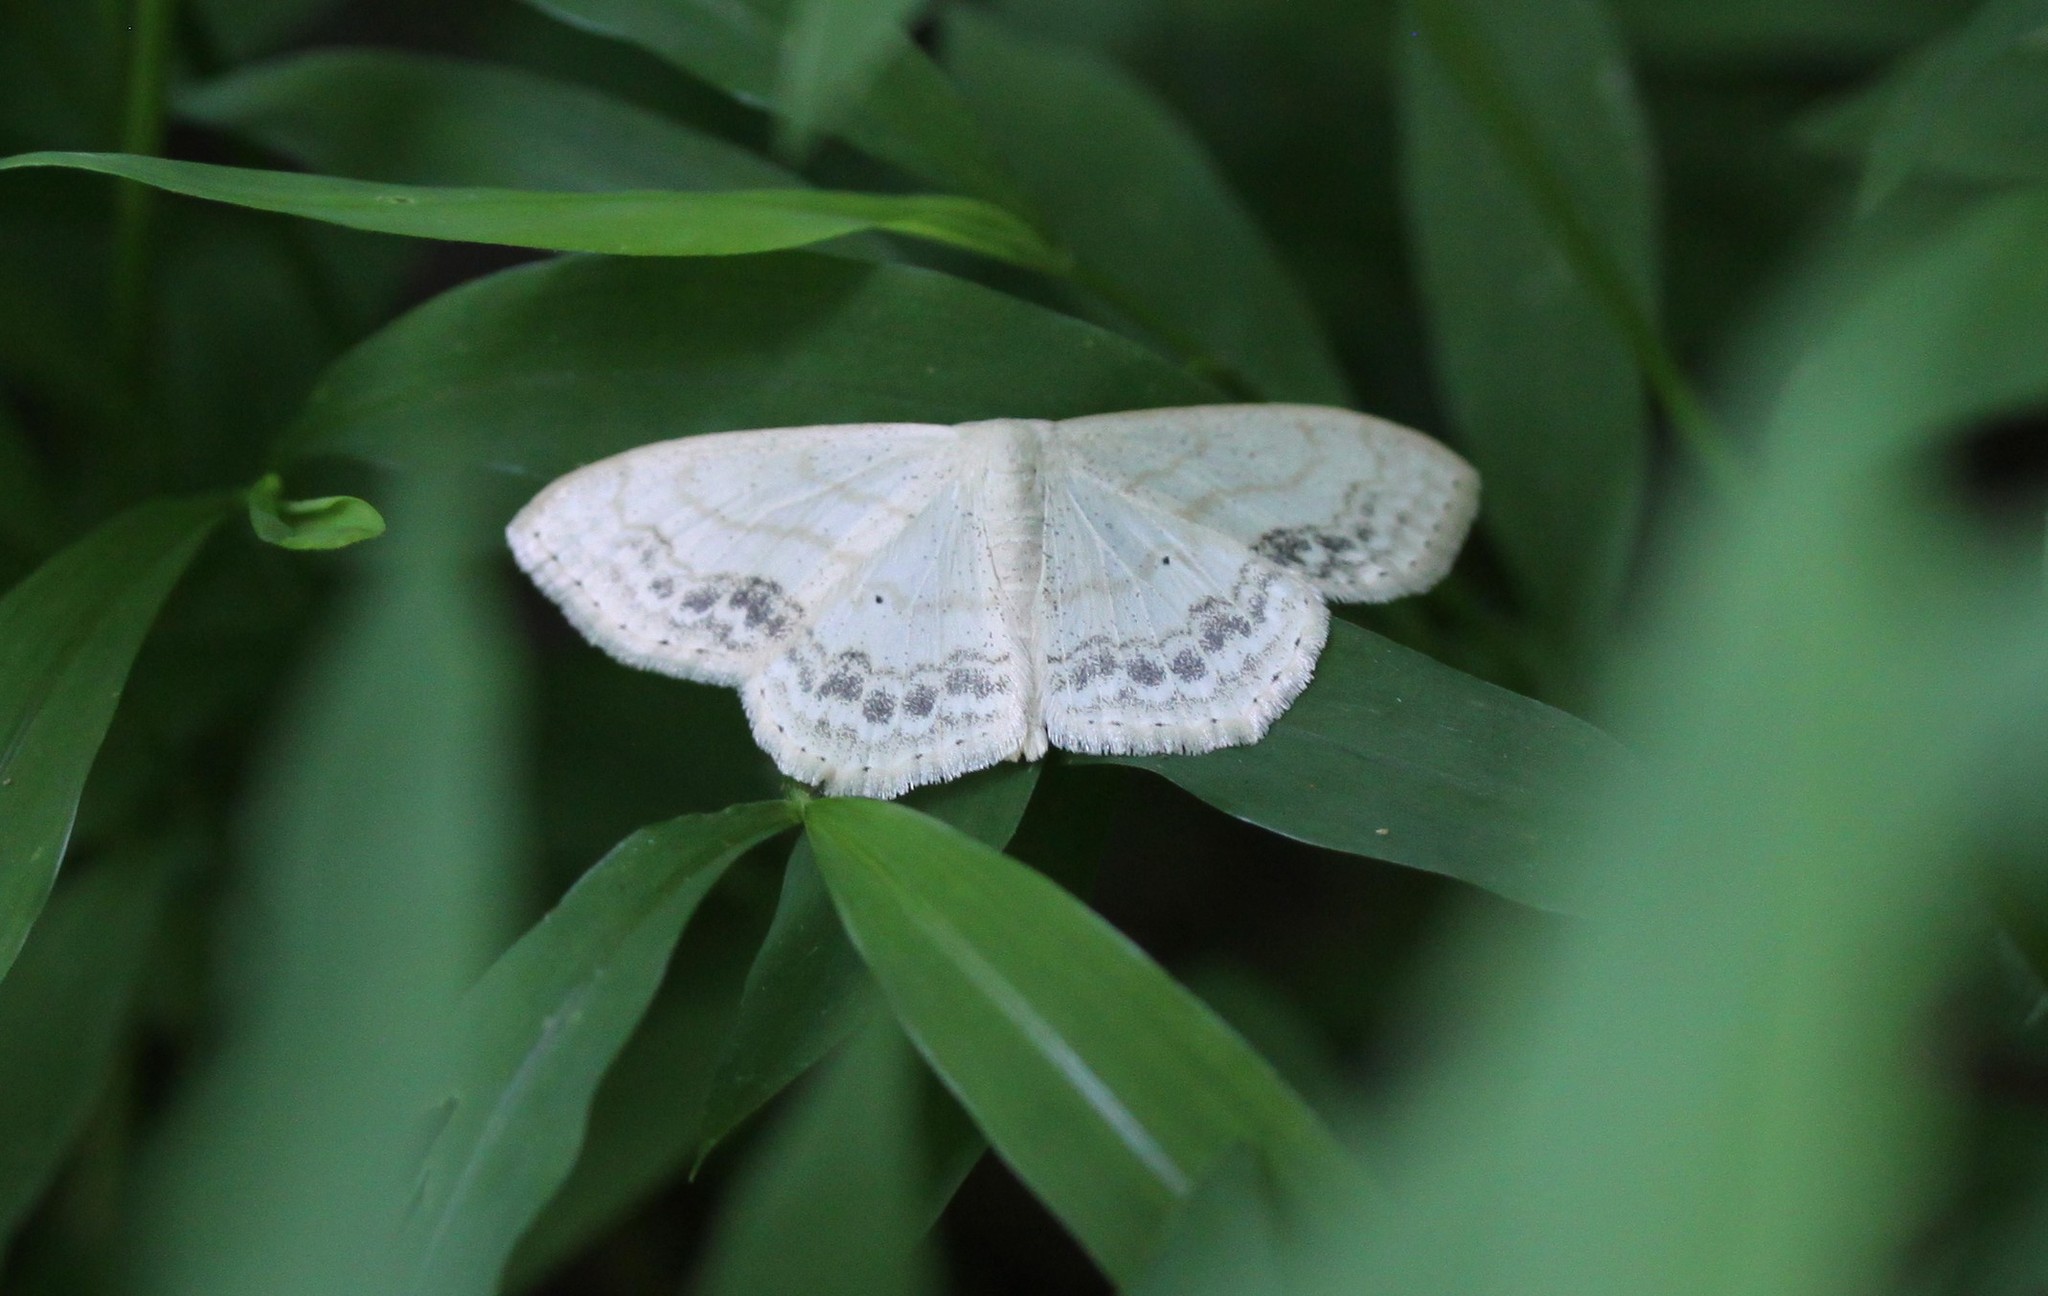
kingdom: Animalia
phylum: Arthropoda
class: Insecta
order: Lepidoptera
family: Geometridae
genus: Scopula
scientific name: Scopula limboundata
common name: Large lace border
